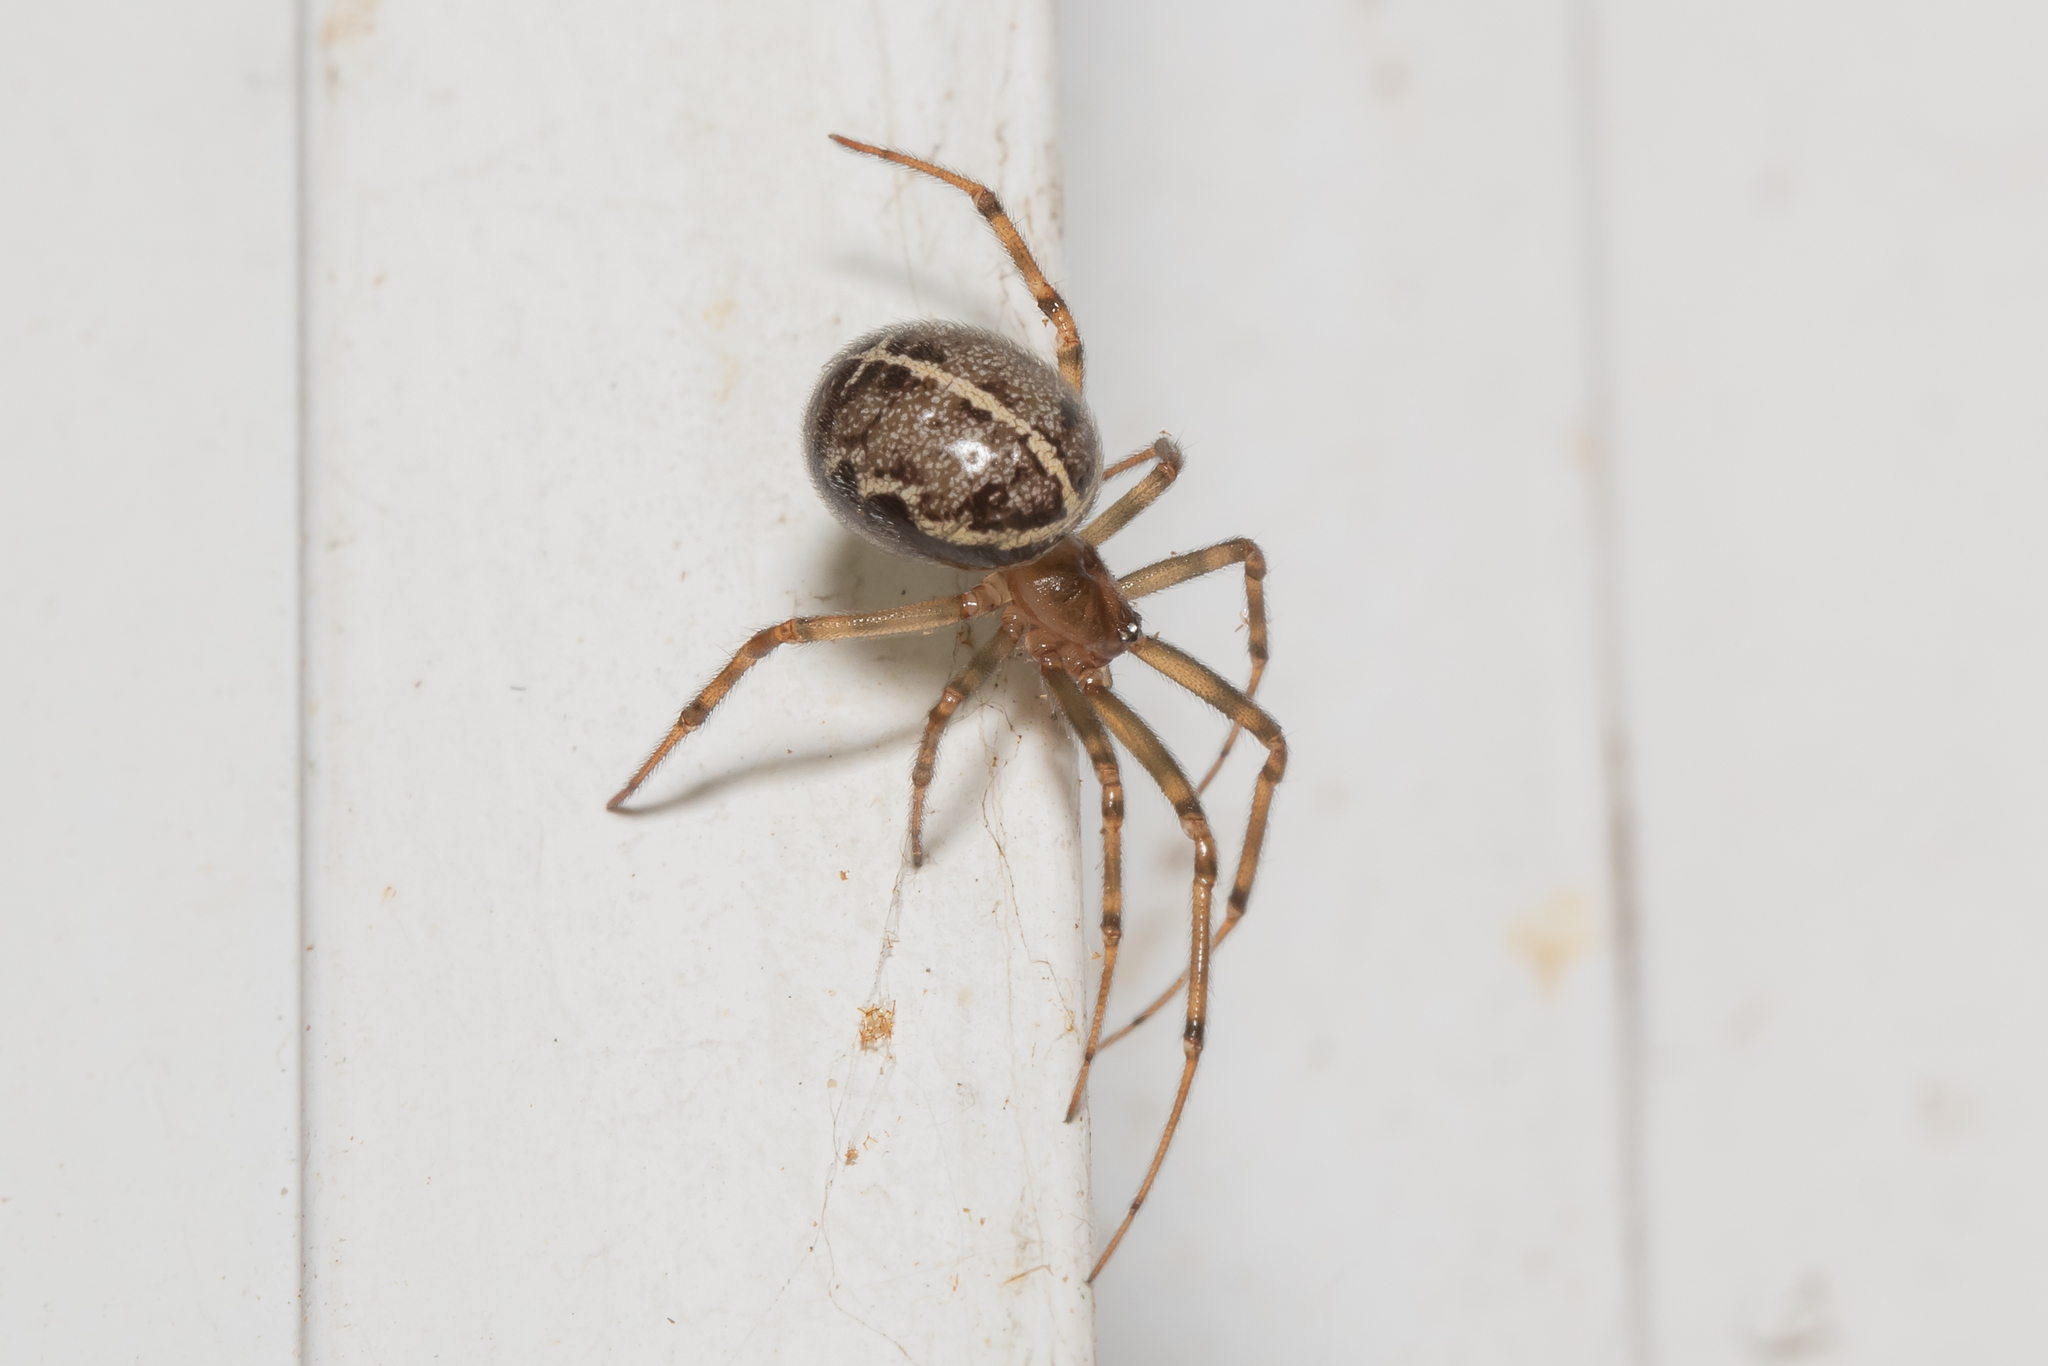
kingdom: Animalia
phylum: Arthropoda
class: Arachnida
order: Araneae
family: Theridiidae
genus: Steatoda
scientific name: Steatoda castanea
